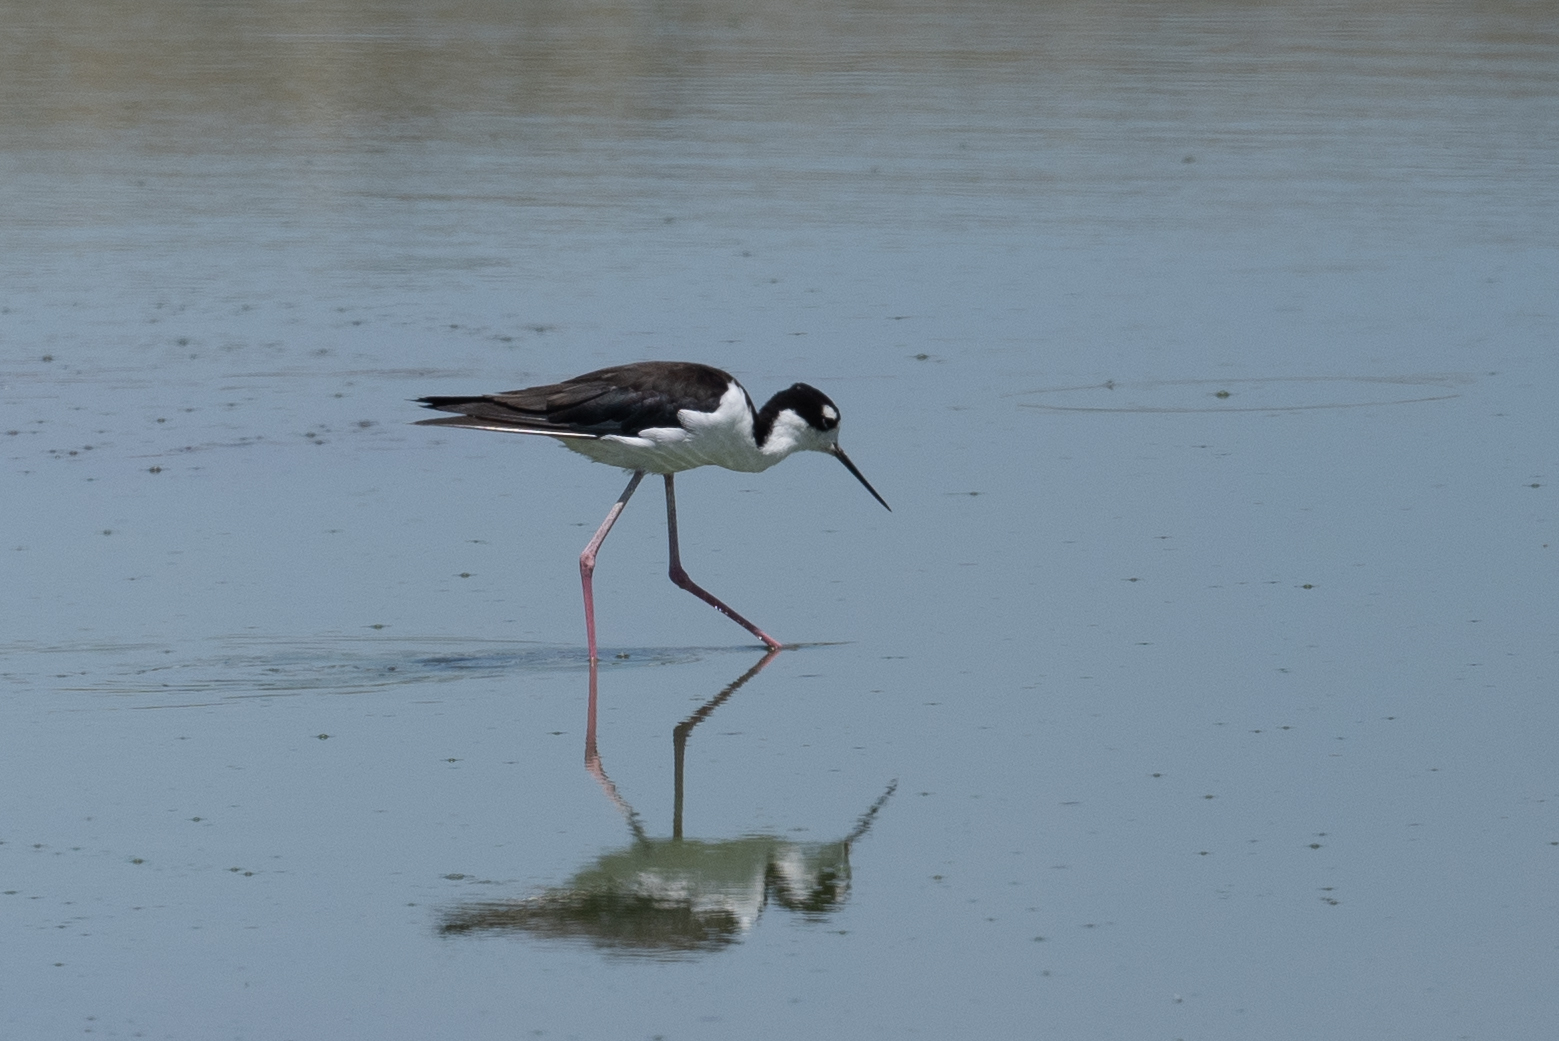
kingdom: Animalia
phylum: Chordata
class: Aves
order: Charadriiformes
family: Recurvirostridae
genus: Himantopus
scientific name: Himantopus mexicanus
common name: Black-necked stilt
